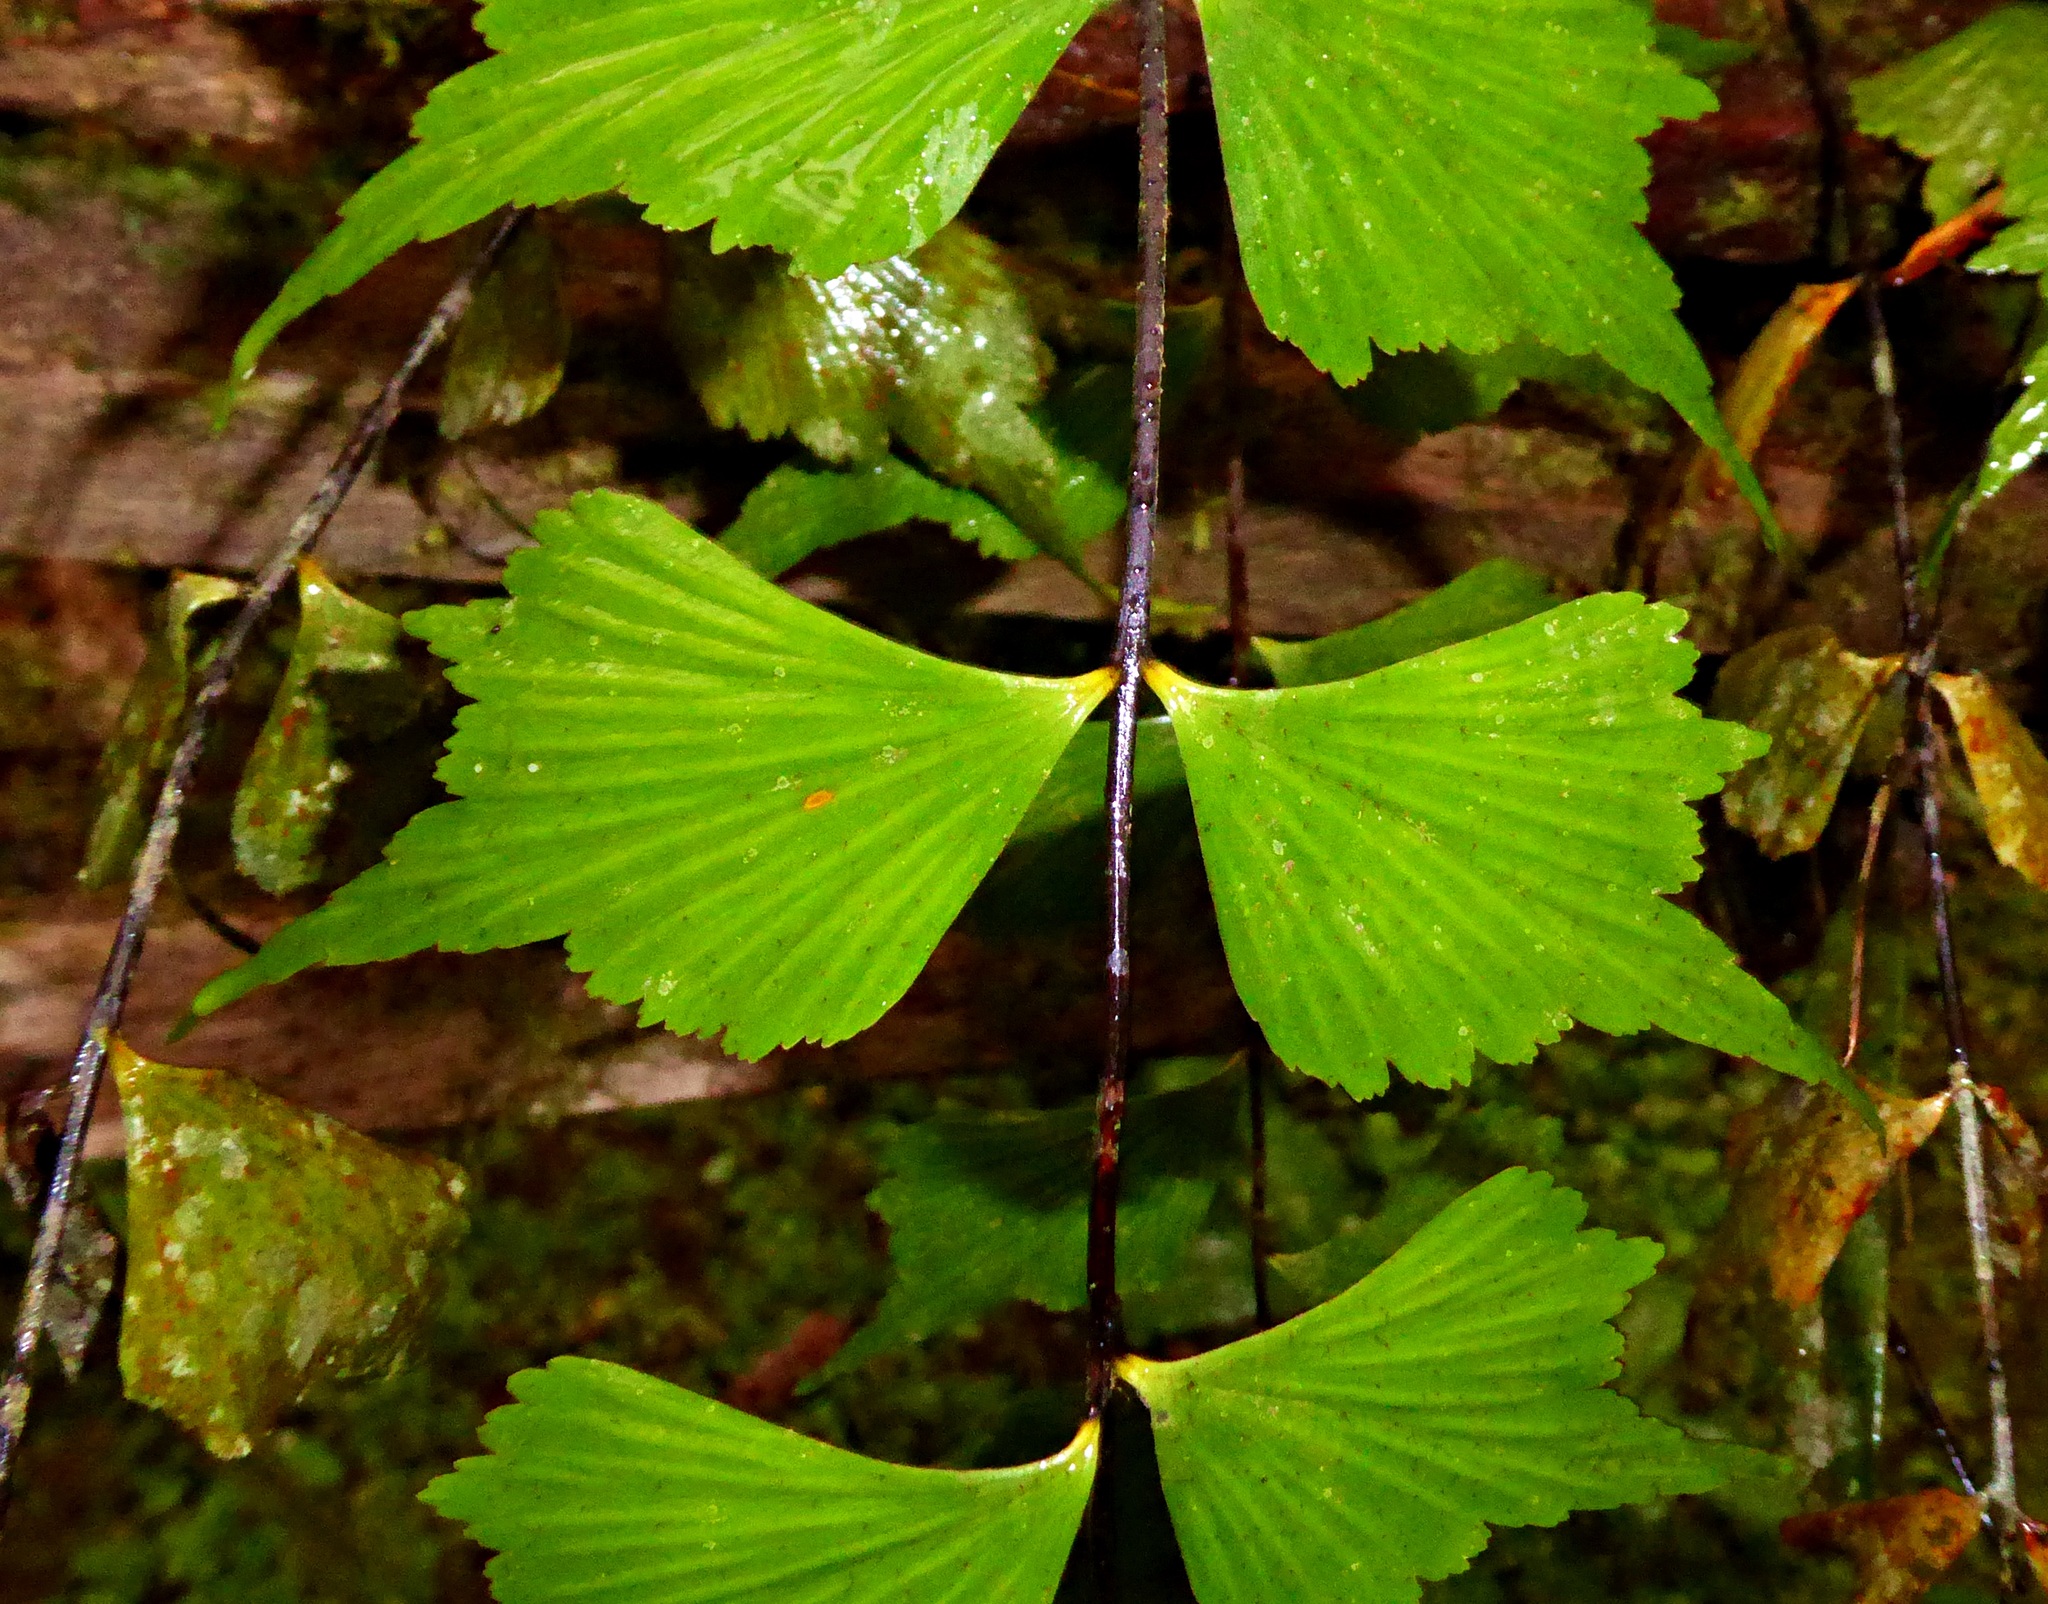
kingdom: Plantae
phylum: Tracheophyta
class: Polypodiopsida
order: Polypodiales
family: Aspleniaceae
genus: Asplenium
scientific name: Asplenium megalura
